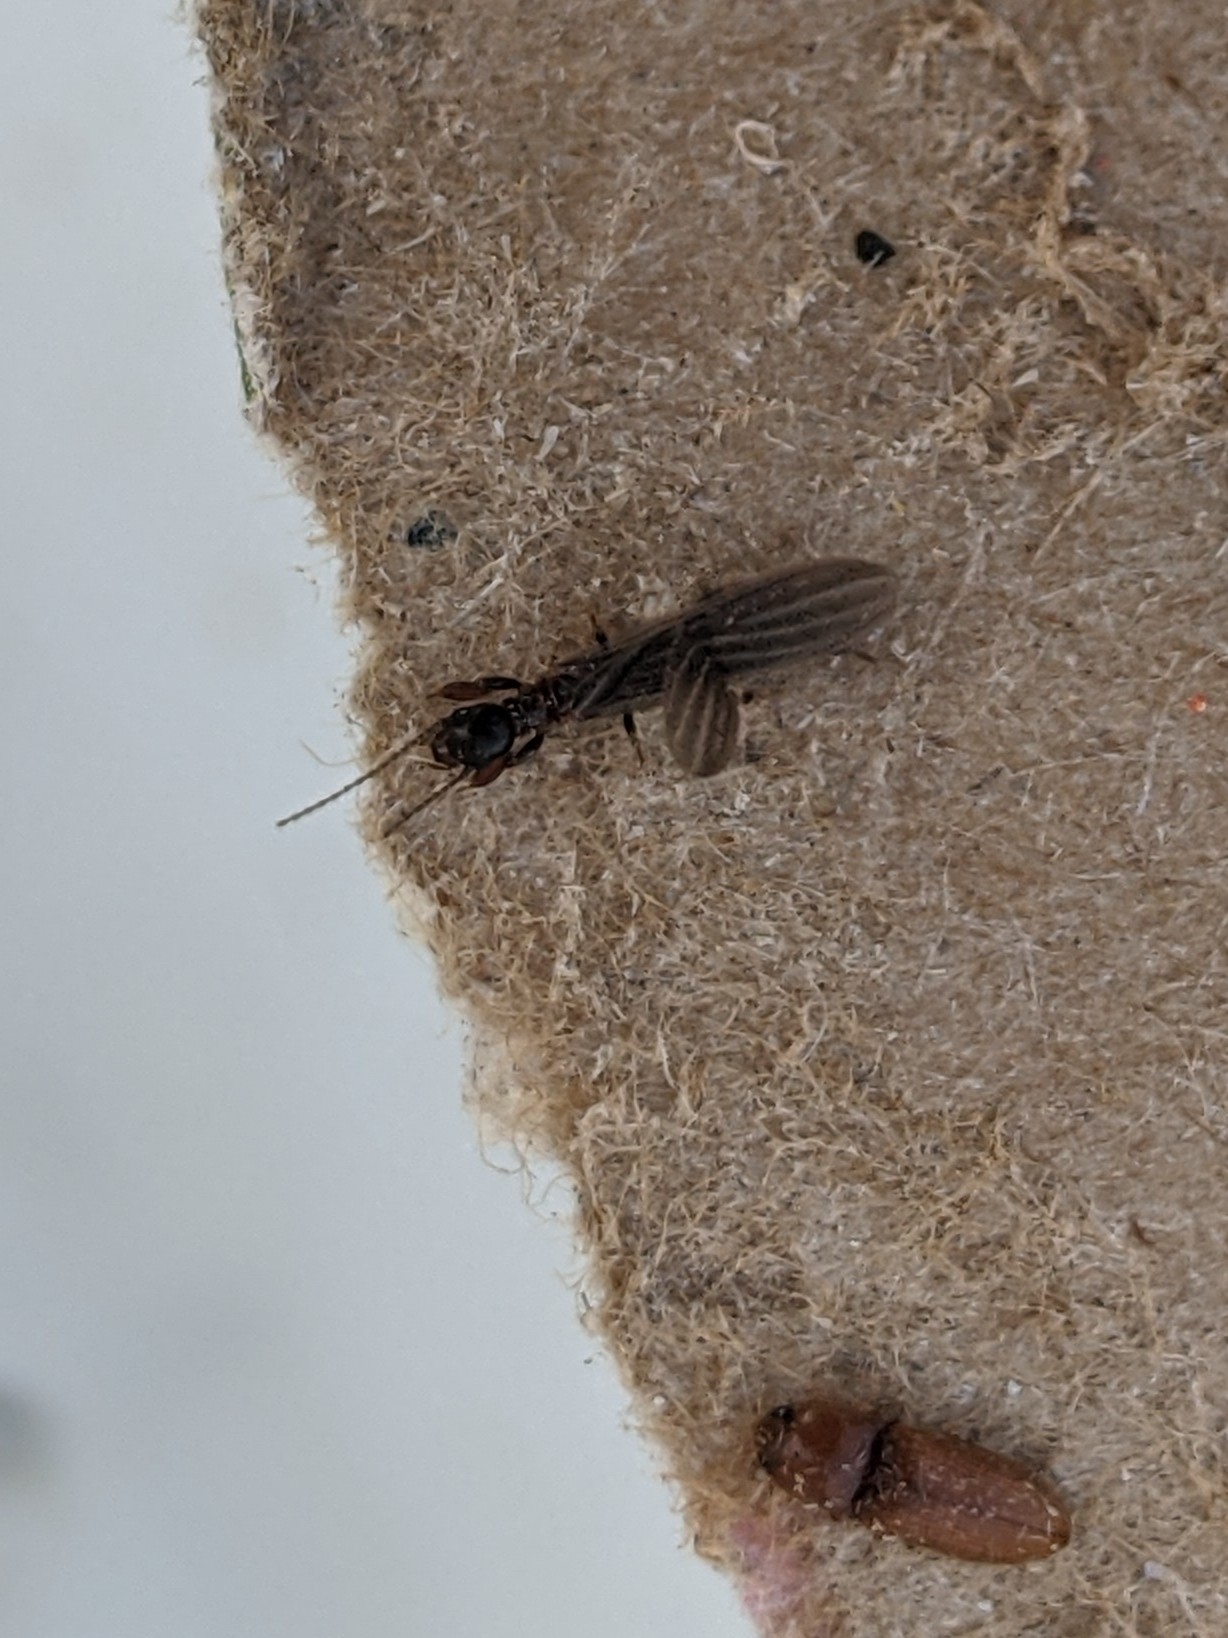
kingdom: Animalia
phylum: Arthropoda
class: Insecta
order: Embioptera
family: Oligotomidae
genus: Oligotoma
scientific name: Oligotoma nigra
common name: Black webspinner
